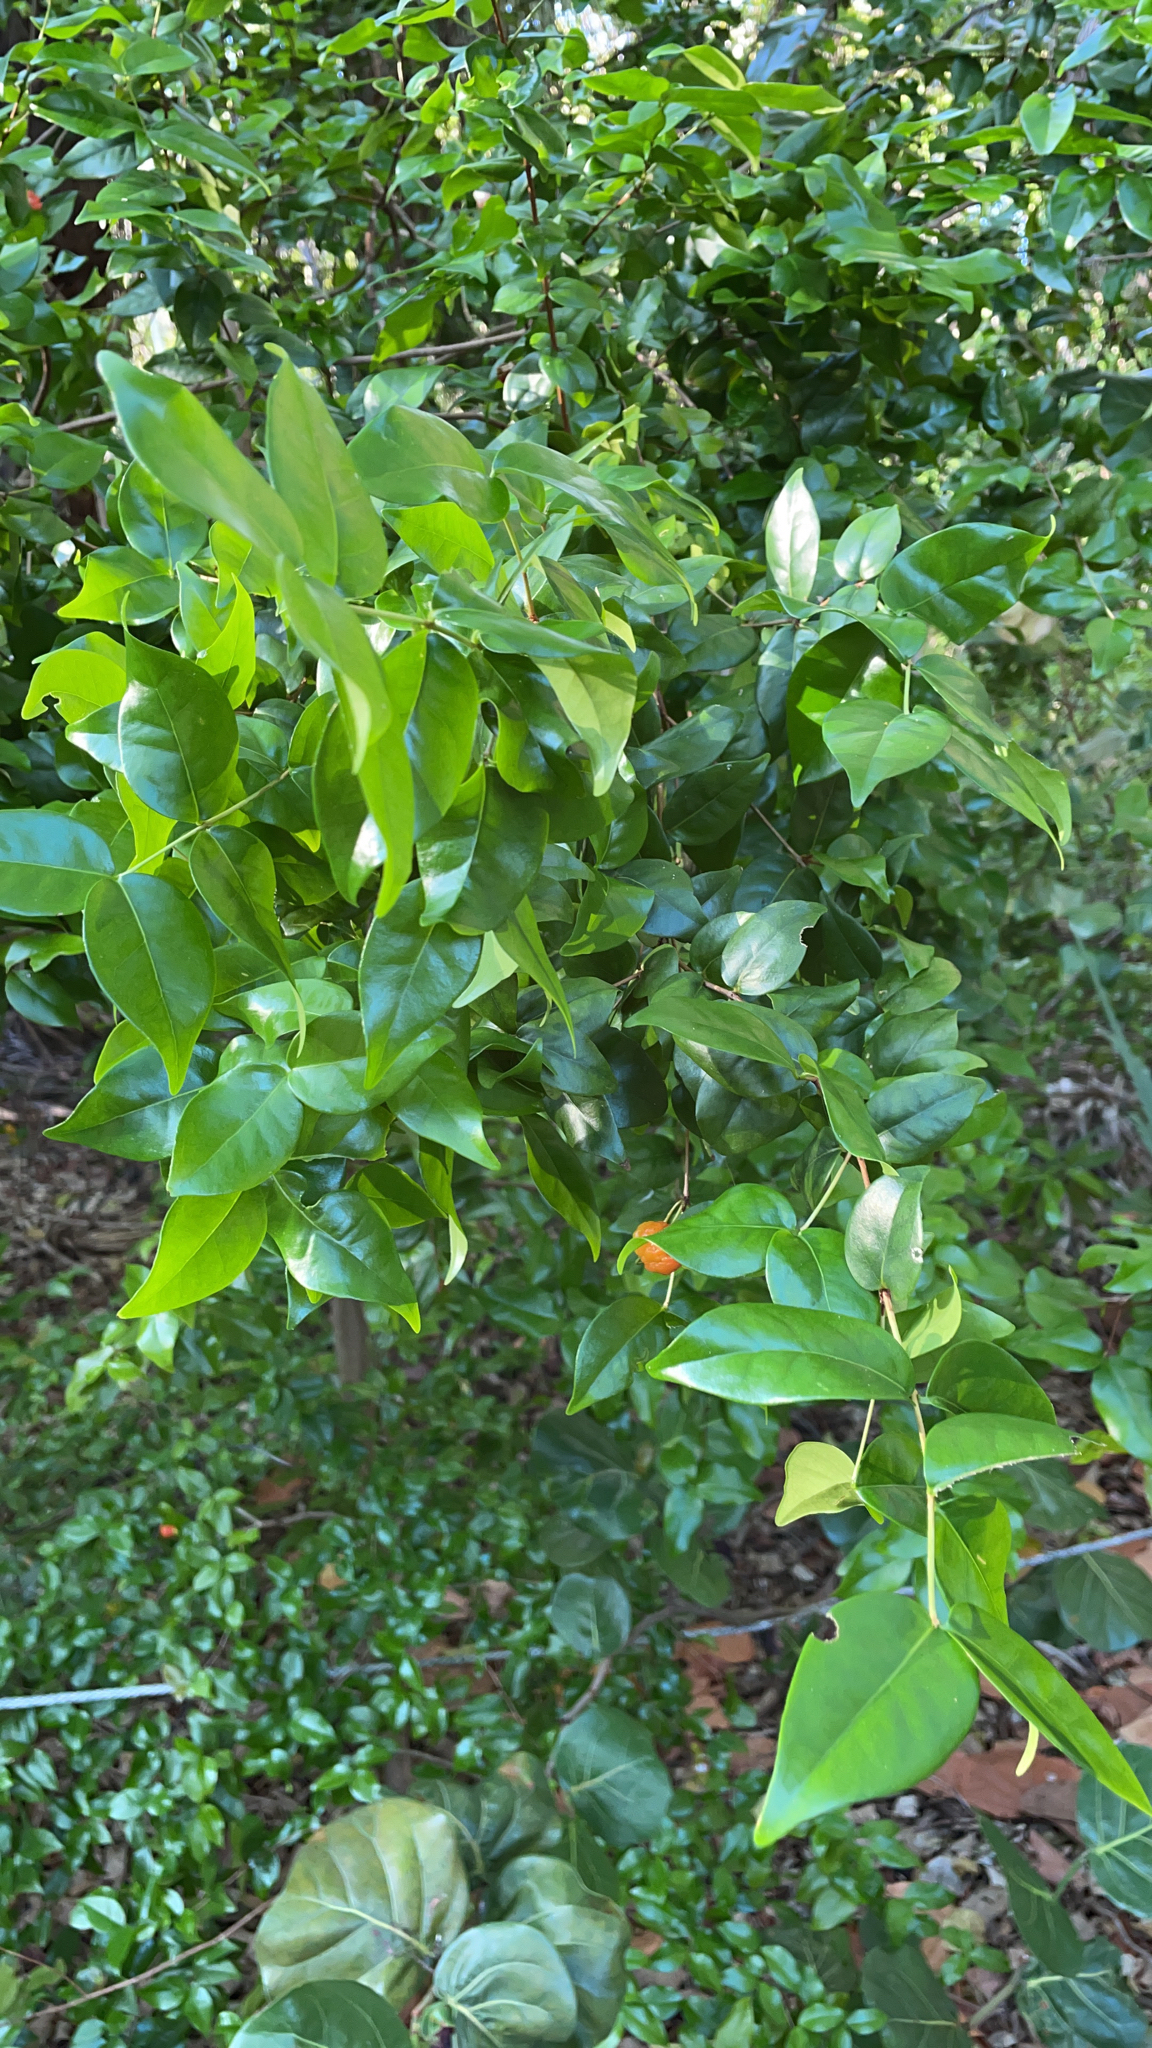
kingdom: Plantae
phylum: Tracheophyta
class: Magnoliopsida
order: Myrtales
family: Myrtaceae
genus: Eugenia
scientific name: Eugenia uniflora
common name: Surinam cherry
